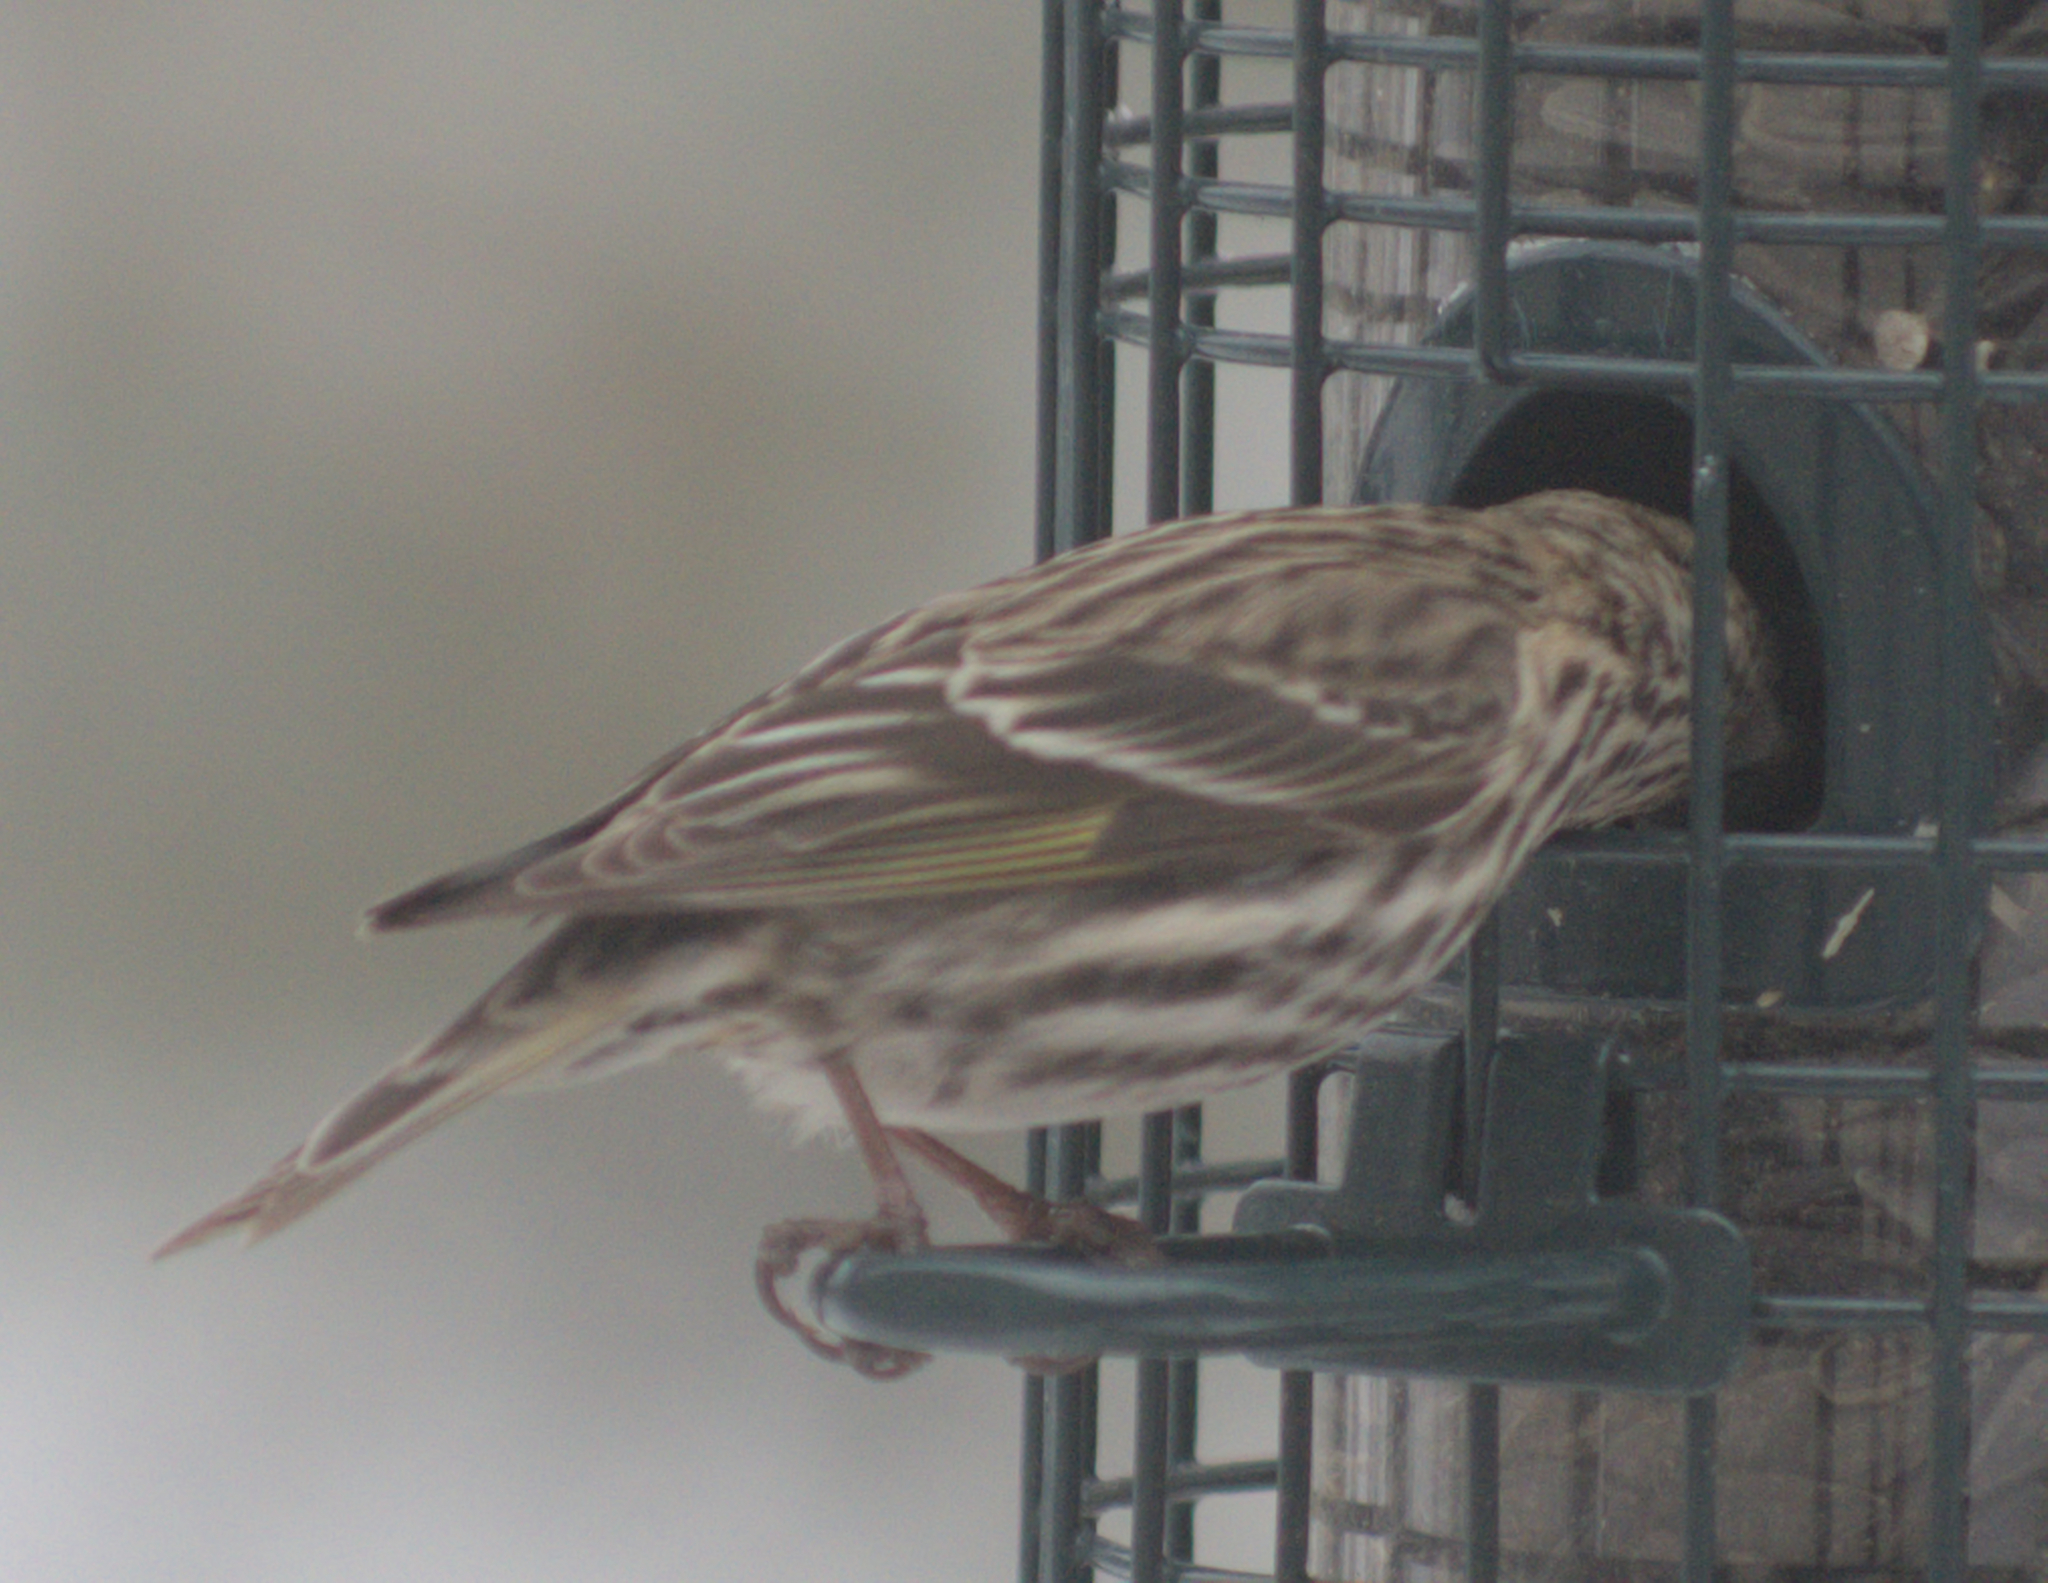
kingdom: Animalia
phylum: Chordata
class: Aves
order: Passeriformes
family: Fringillidae
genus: Spinus
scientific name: Spinus pinus
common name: Pine siskin
